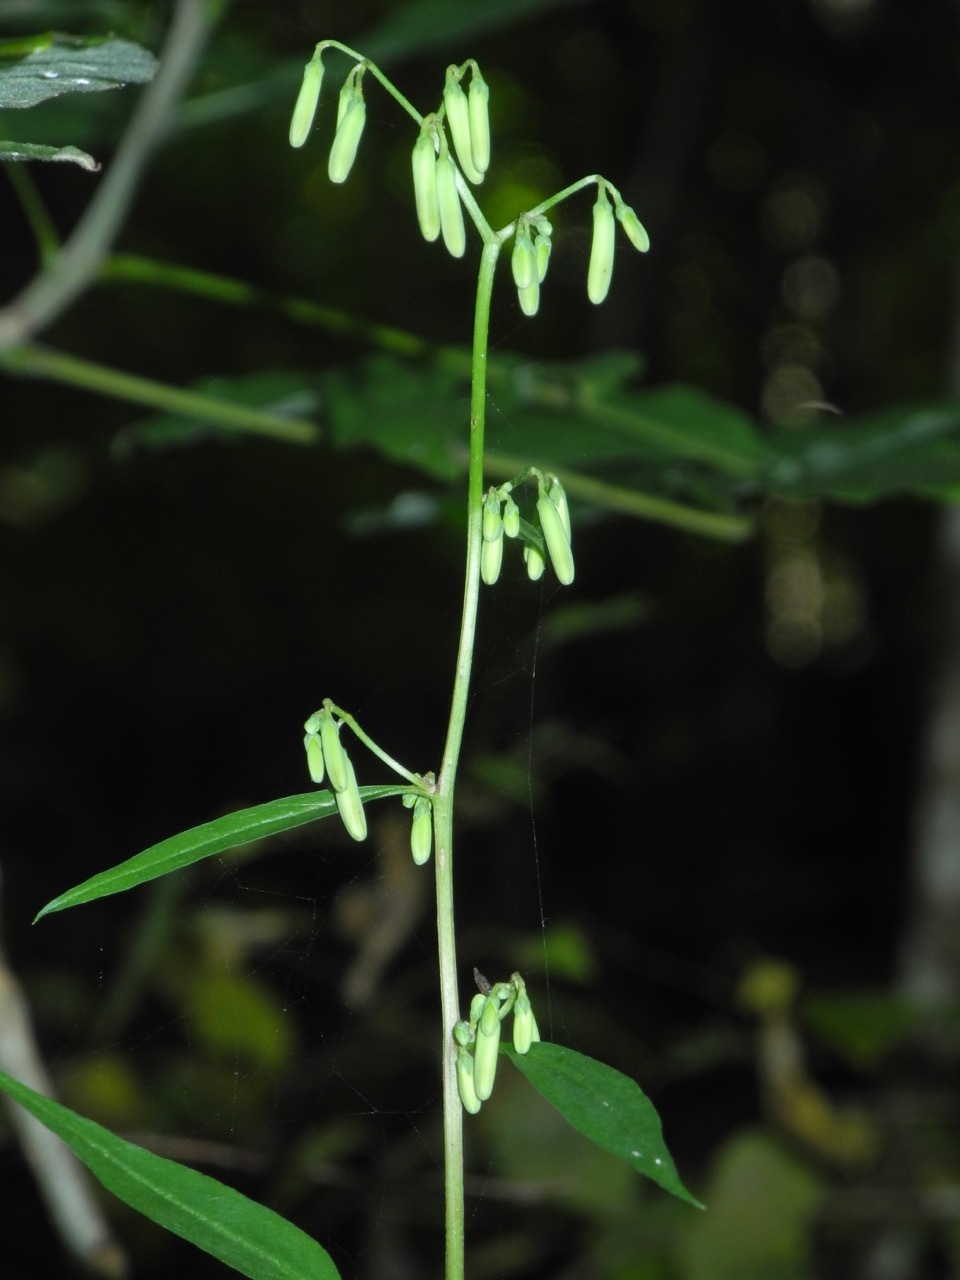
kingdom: Plantae
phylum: Tracheophyta
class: Magnoliopsida
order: Asterales
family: Asteraceae
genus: Nabalus
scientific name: Nabalus altissima
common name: Tall rattlesnakeroot
